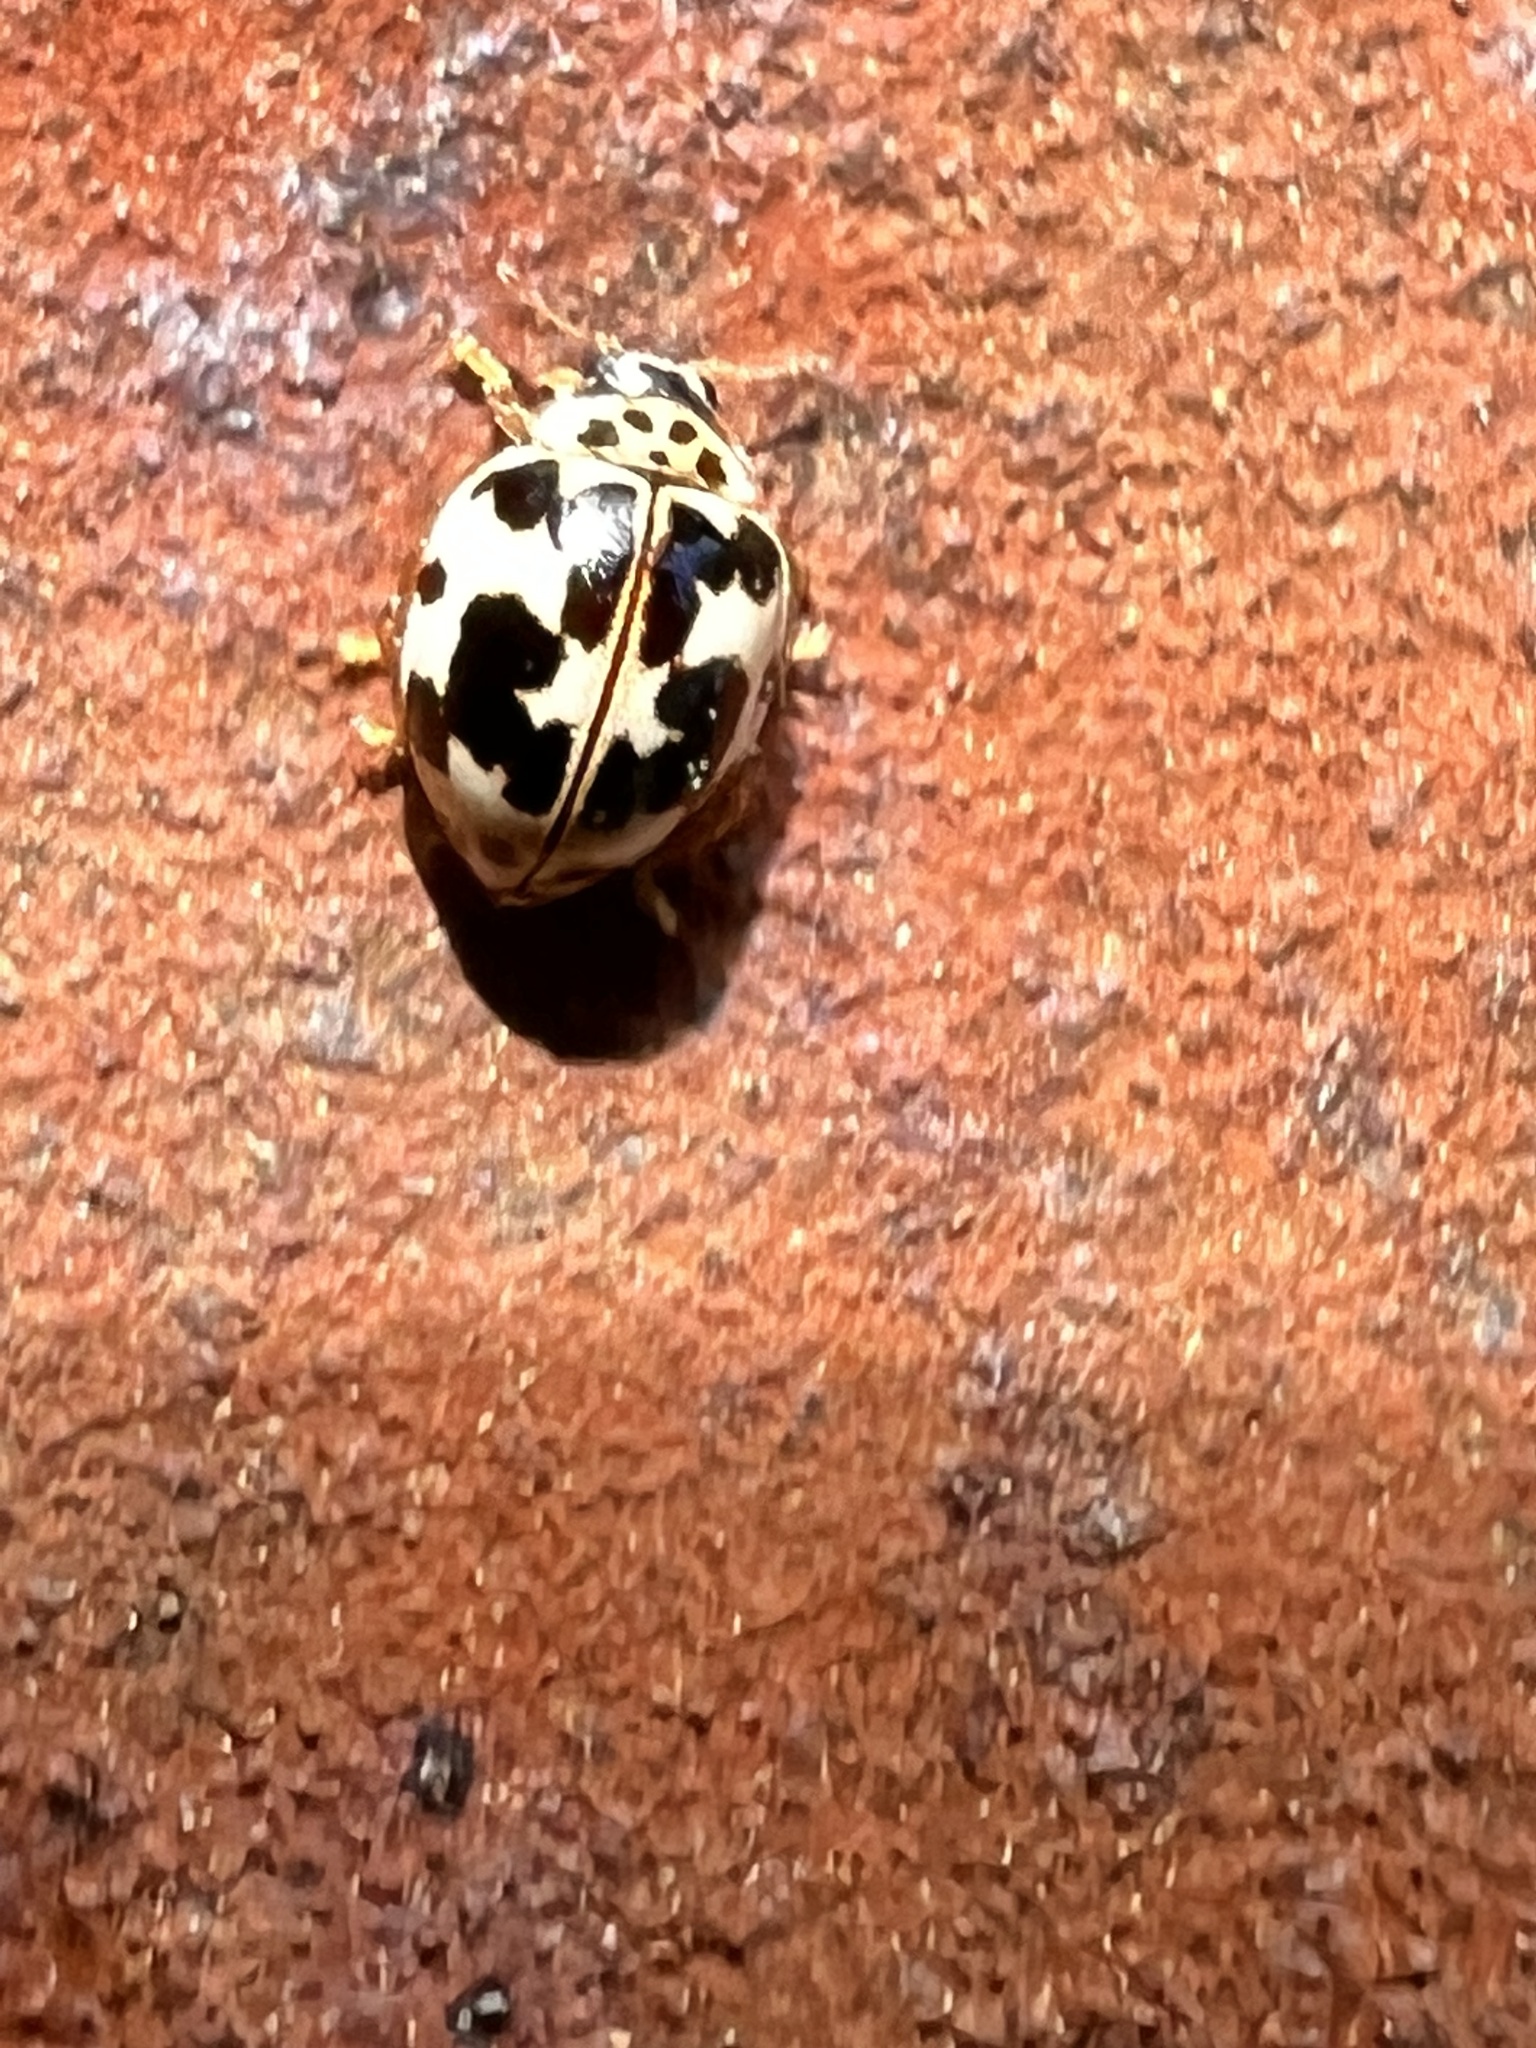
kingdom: Animalia
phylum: Arthropoda
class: Insecta
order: Coleoptera
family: Coccinellidae
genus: Psyllobora
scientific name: Psyllobora borealis
